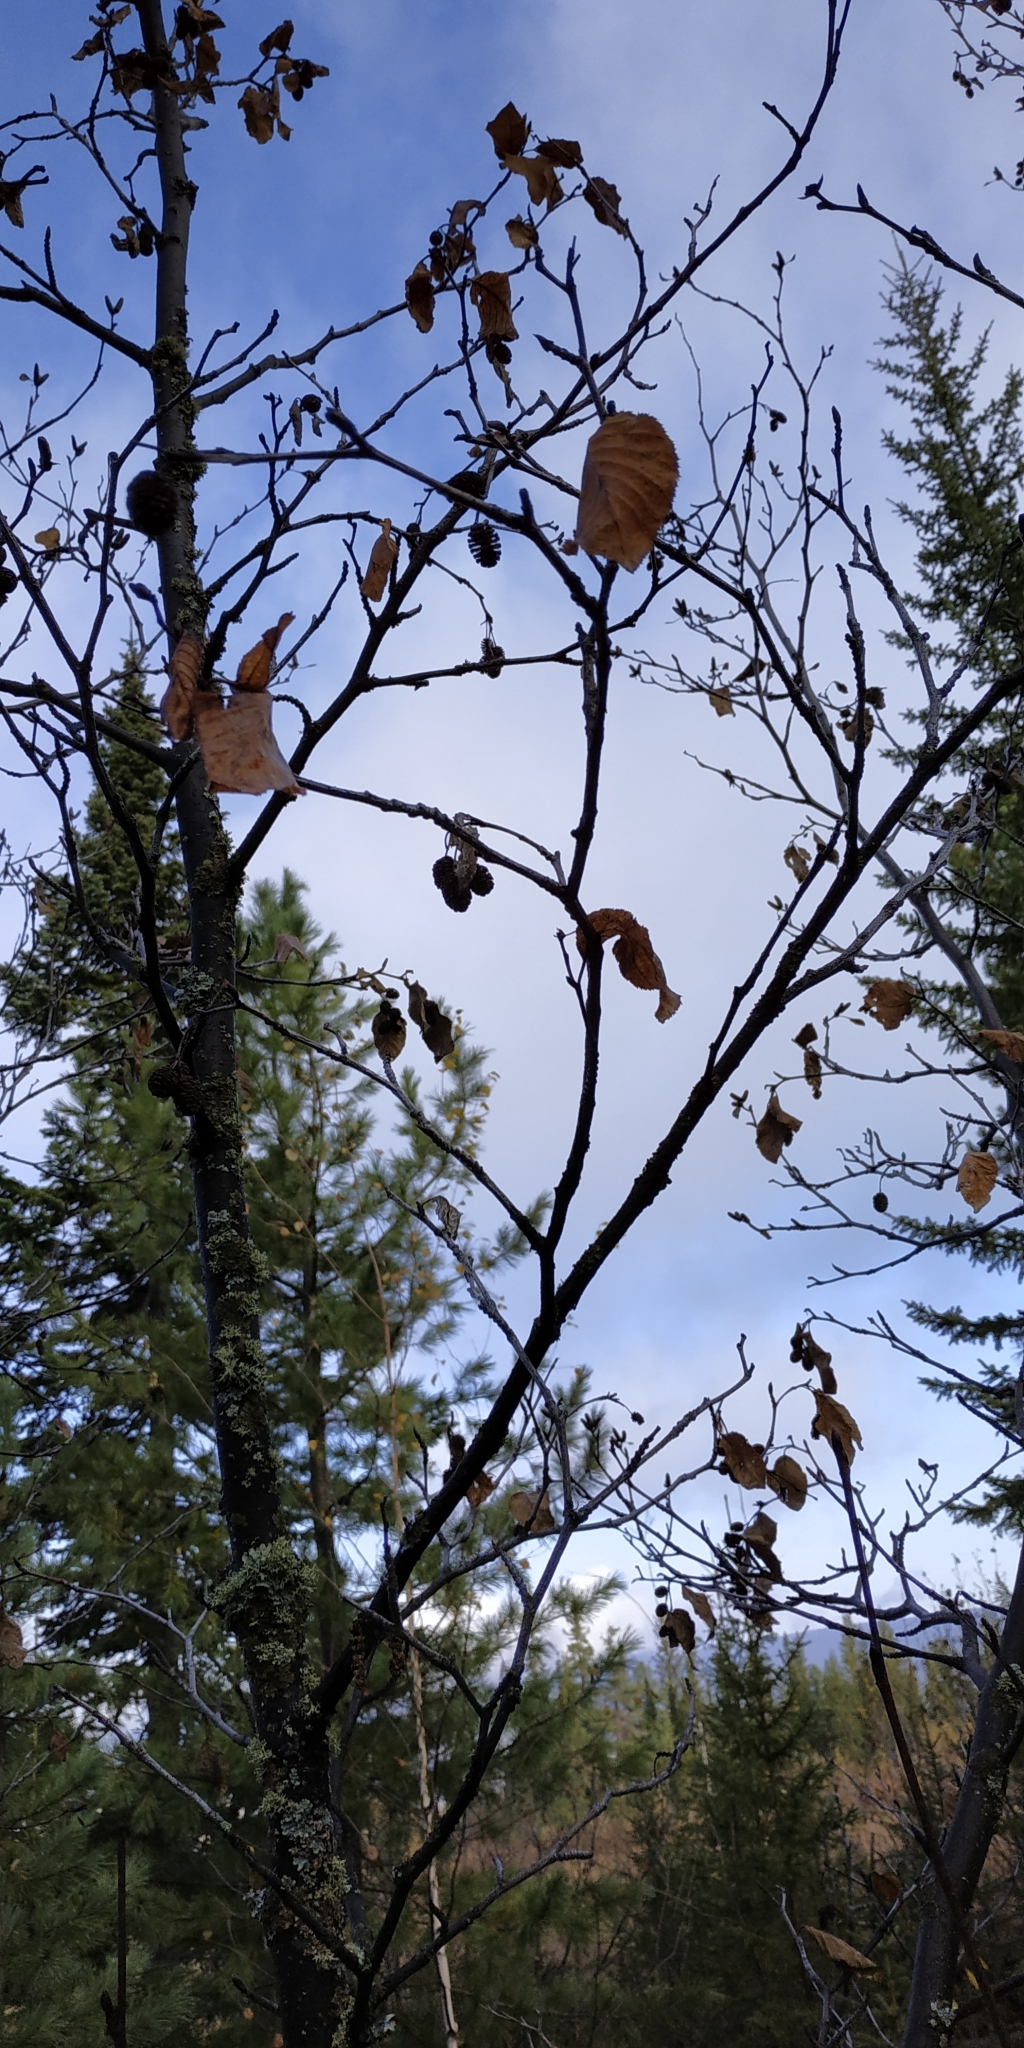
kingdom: Plantae
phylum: Tracheophyta
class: Magnoliopsida
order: Fagales
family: Betulaceae
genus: Alnus
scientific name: Alnus hirsuta
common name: Manchurian alder
